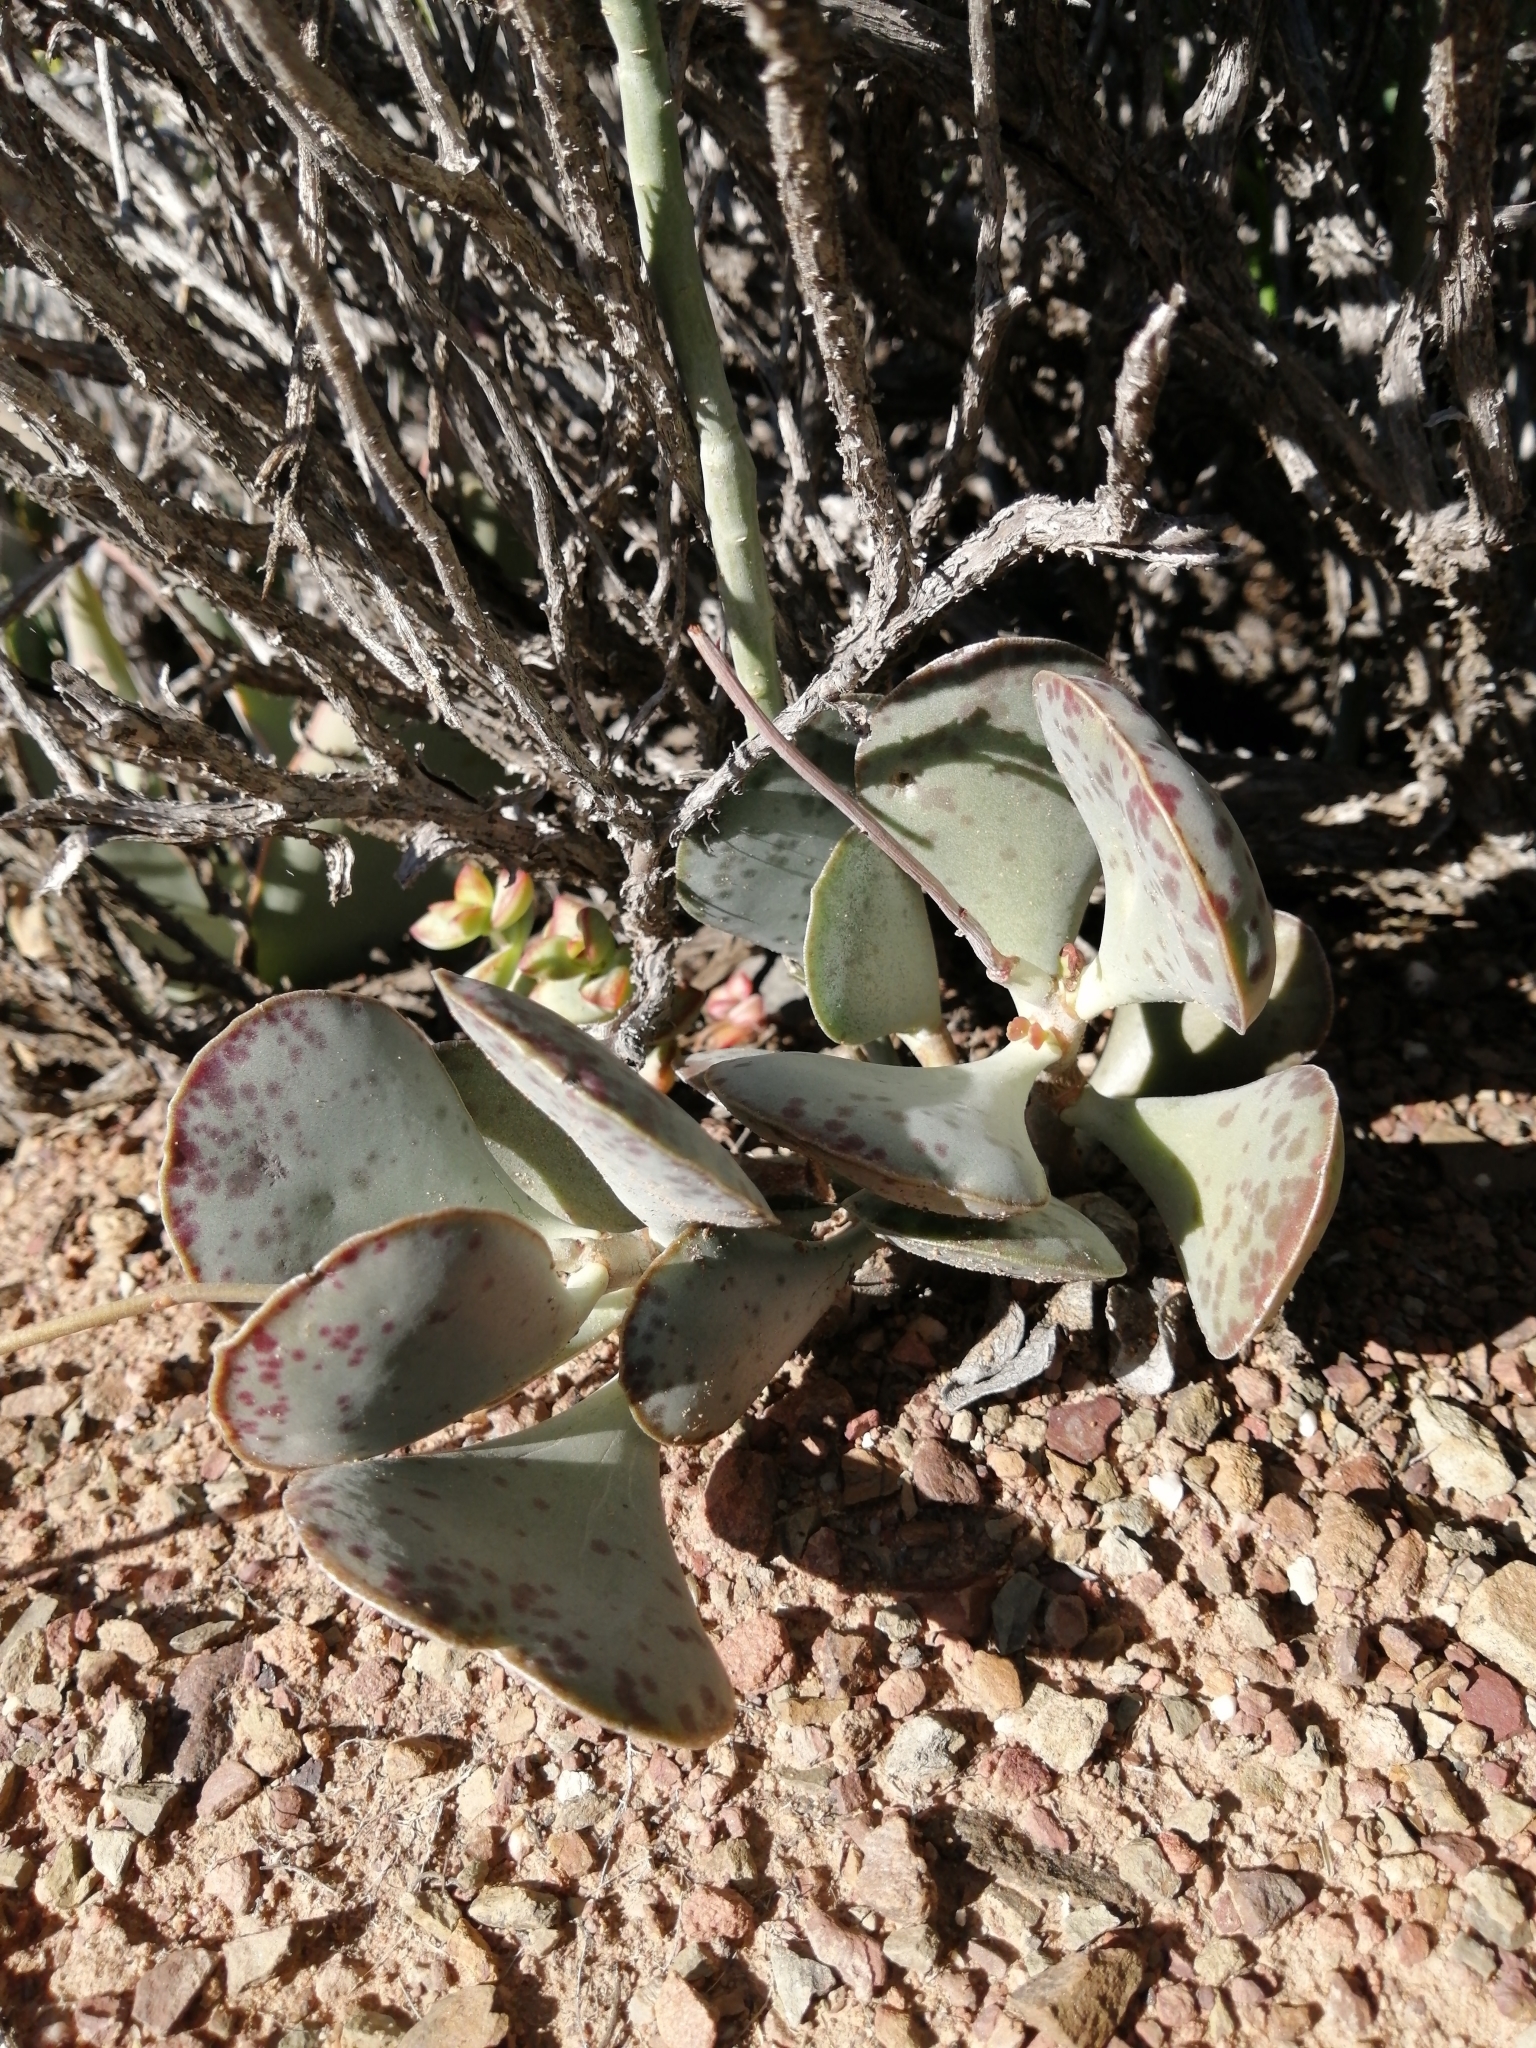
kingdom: Plantae
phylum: Tracheophyta
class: Magnoliopsida
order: Saxifragales
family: Crassulaceae
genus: Adromischus
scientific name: Adromischus maculatus
